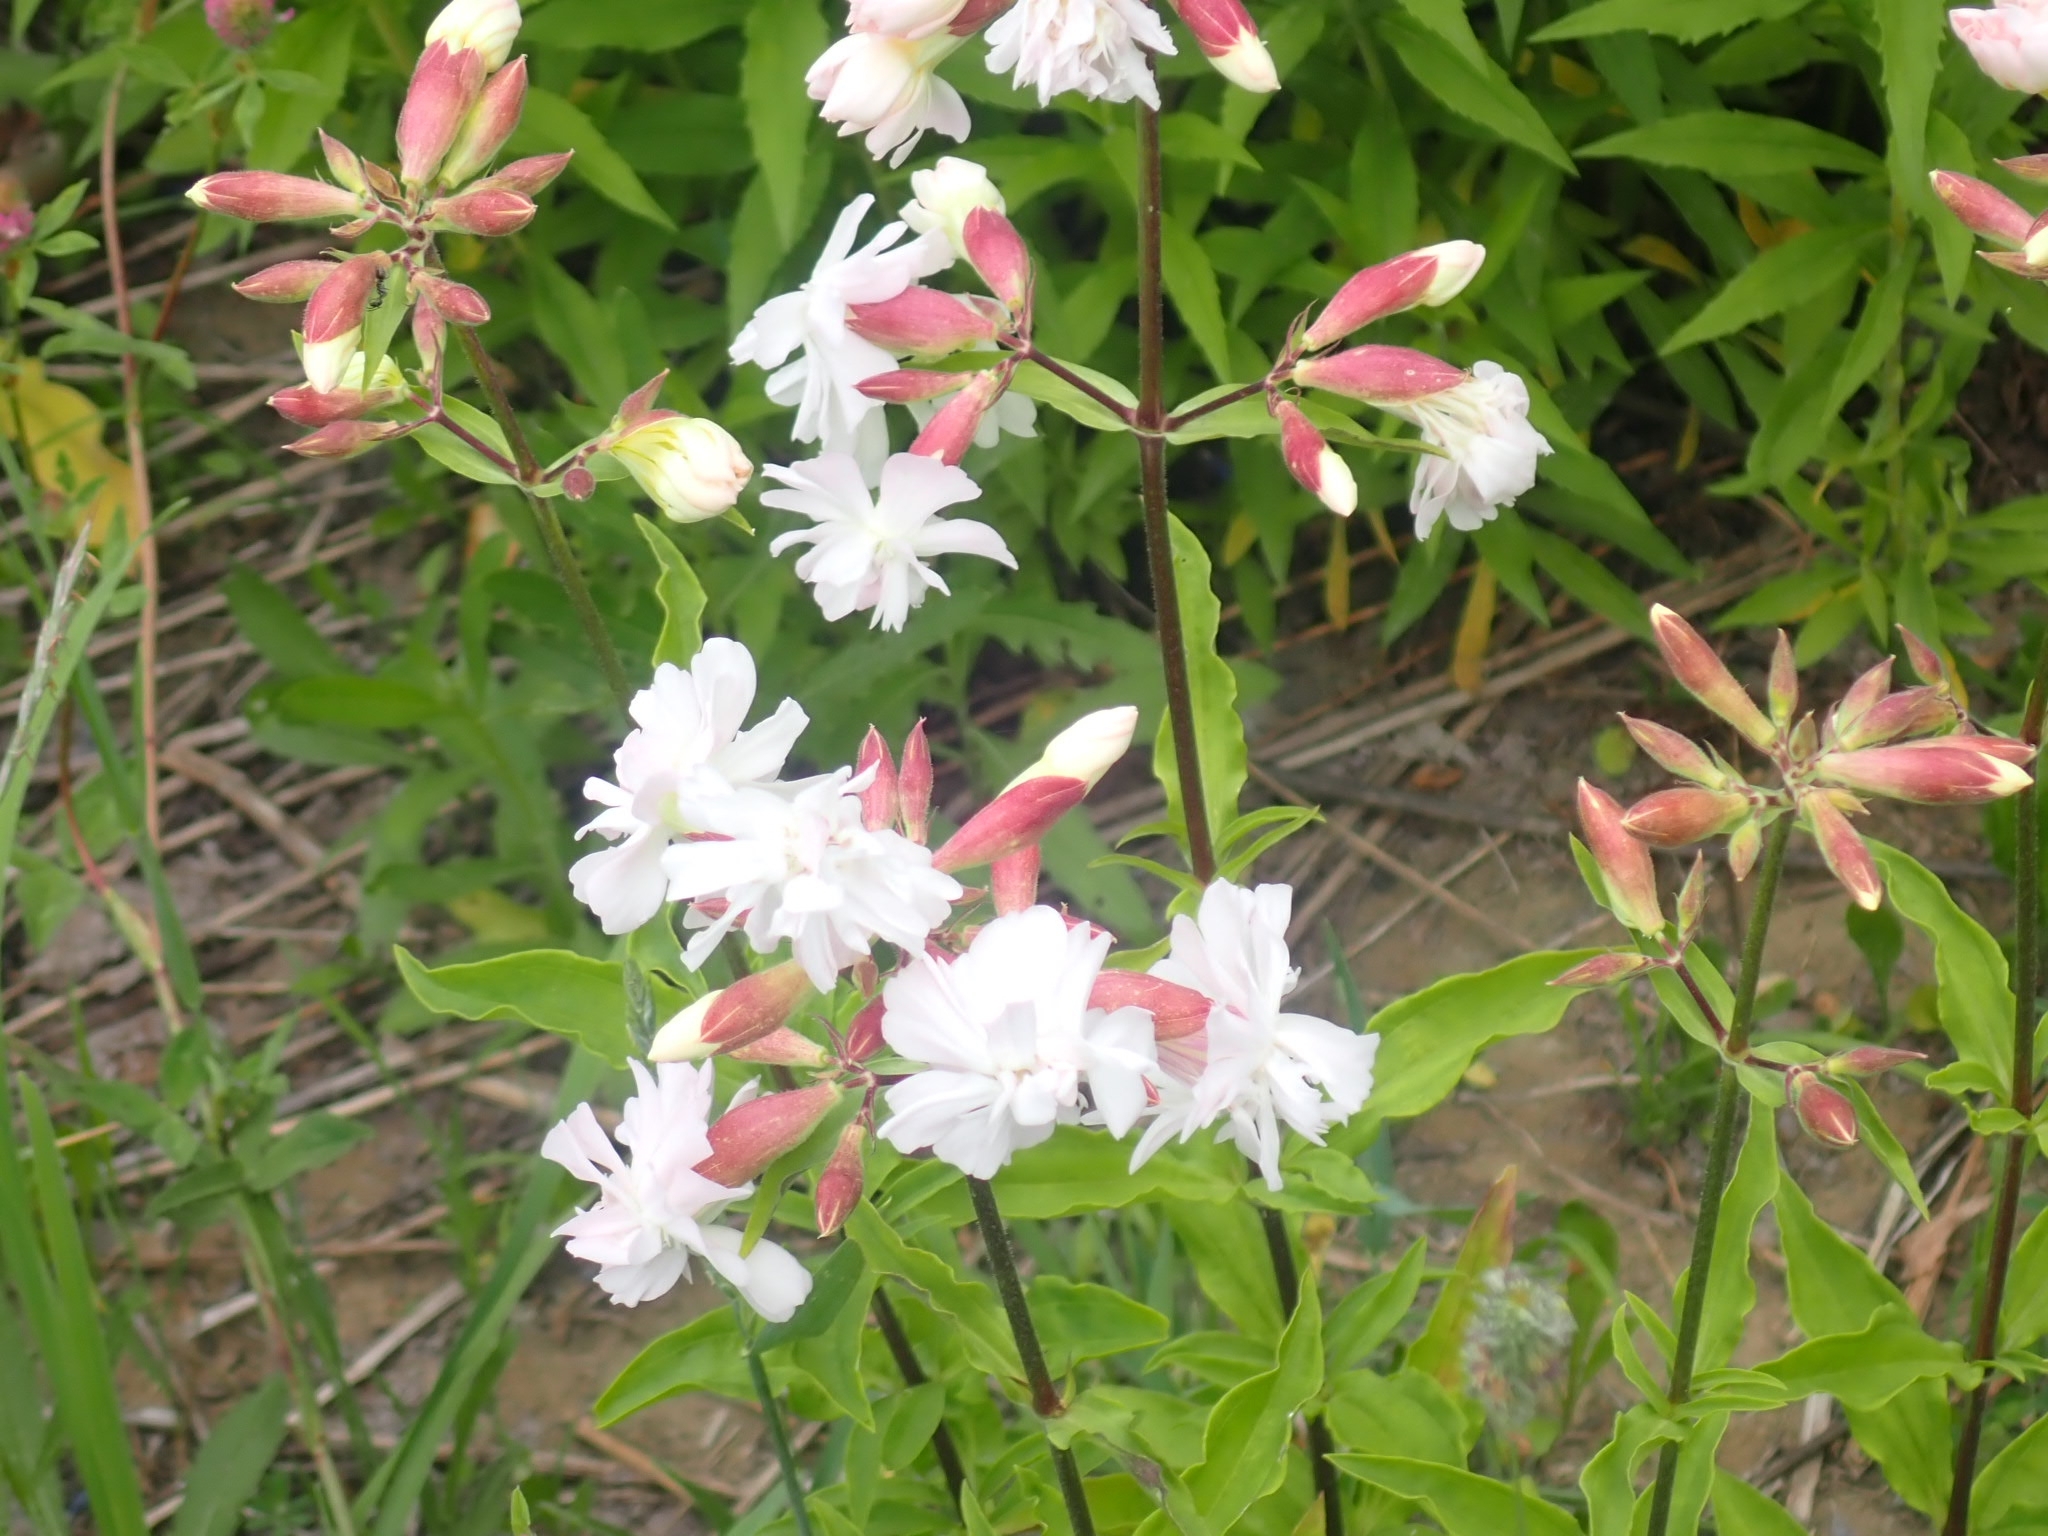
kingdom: Plantae
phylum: Tracheophyta
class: Magnoliopsida
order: Caryophyllales
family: Caryophyllaceae
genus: Saponaria
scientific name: Saponaria officinalis
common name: Soapwort
